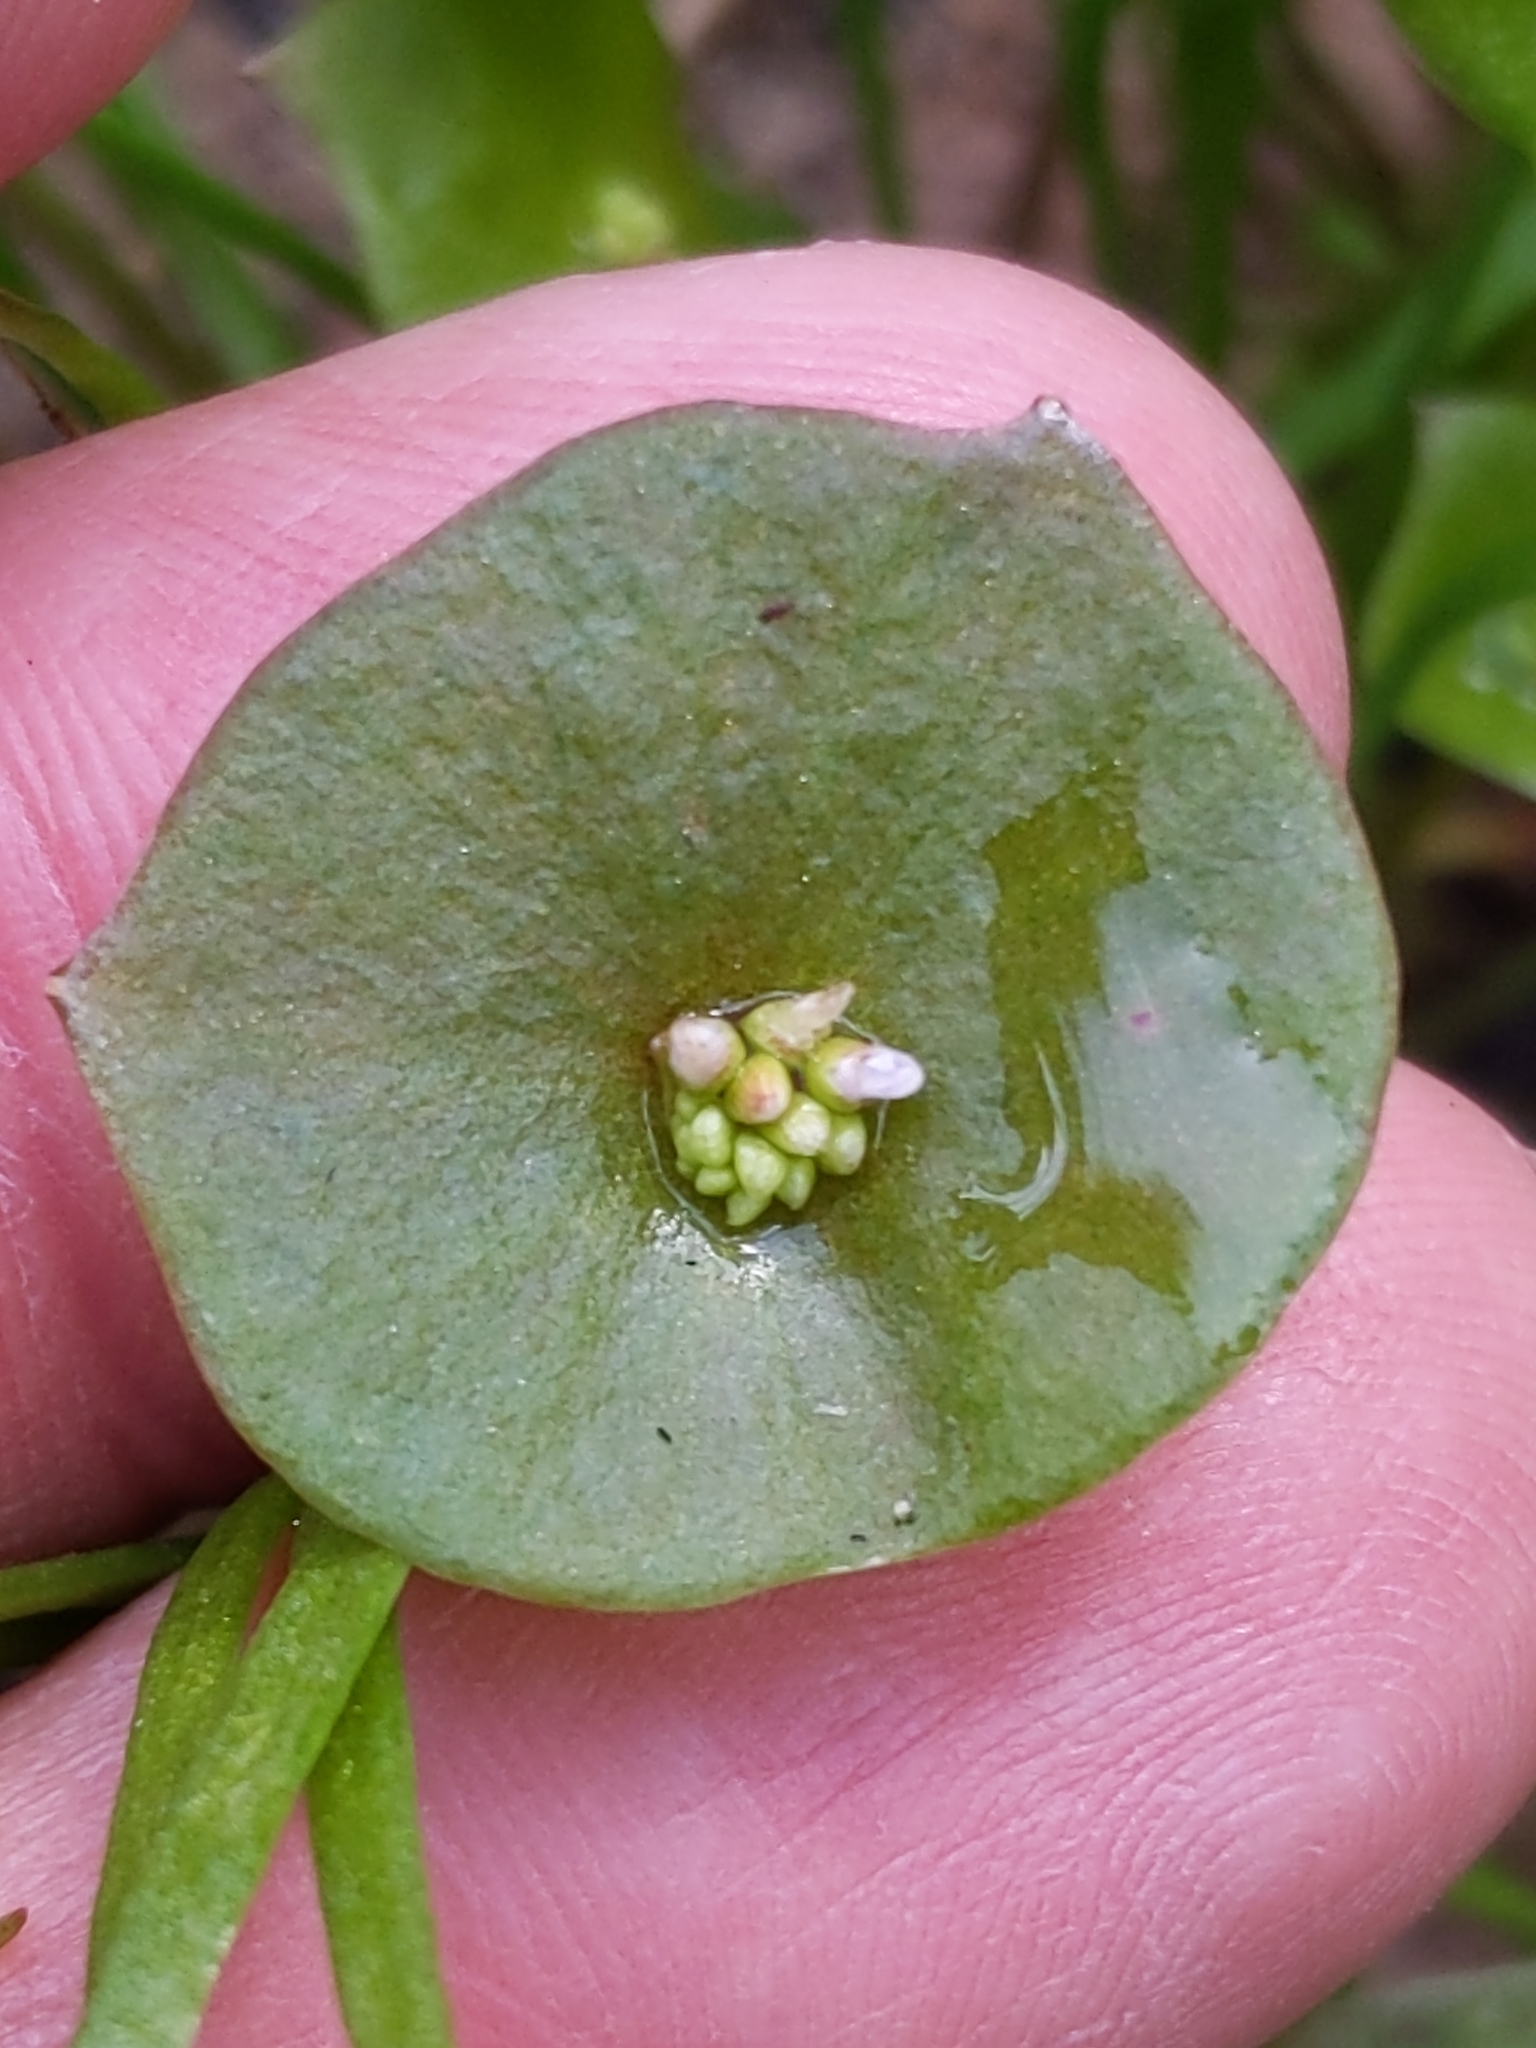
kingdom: Plantae
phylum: Tracheophyta
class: Magnoliopsida
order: Caryophyllales
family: Montiaceae
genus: Claytonia
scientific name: Claytonia perfoliata
